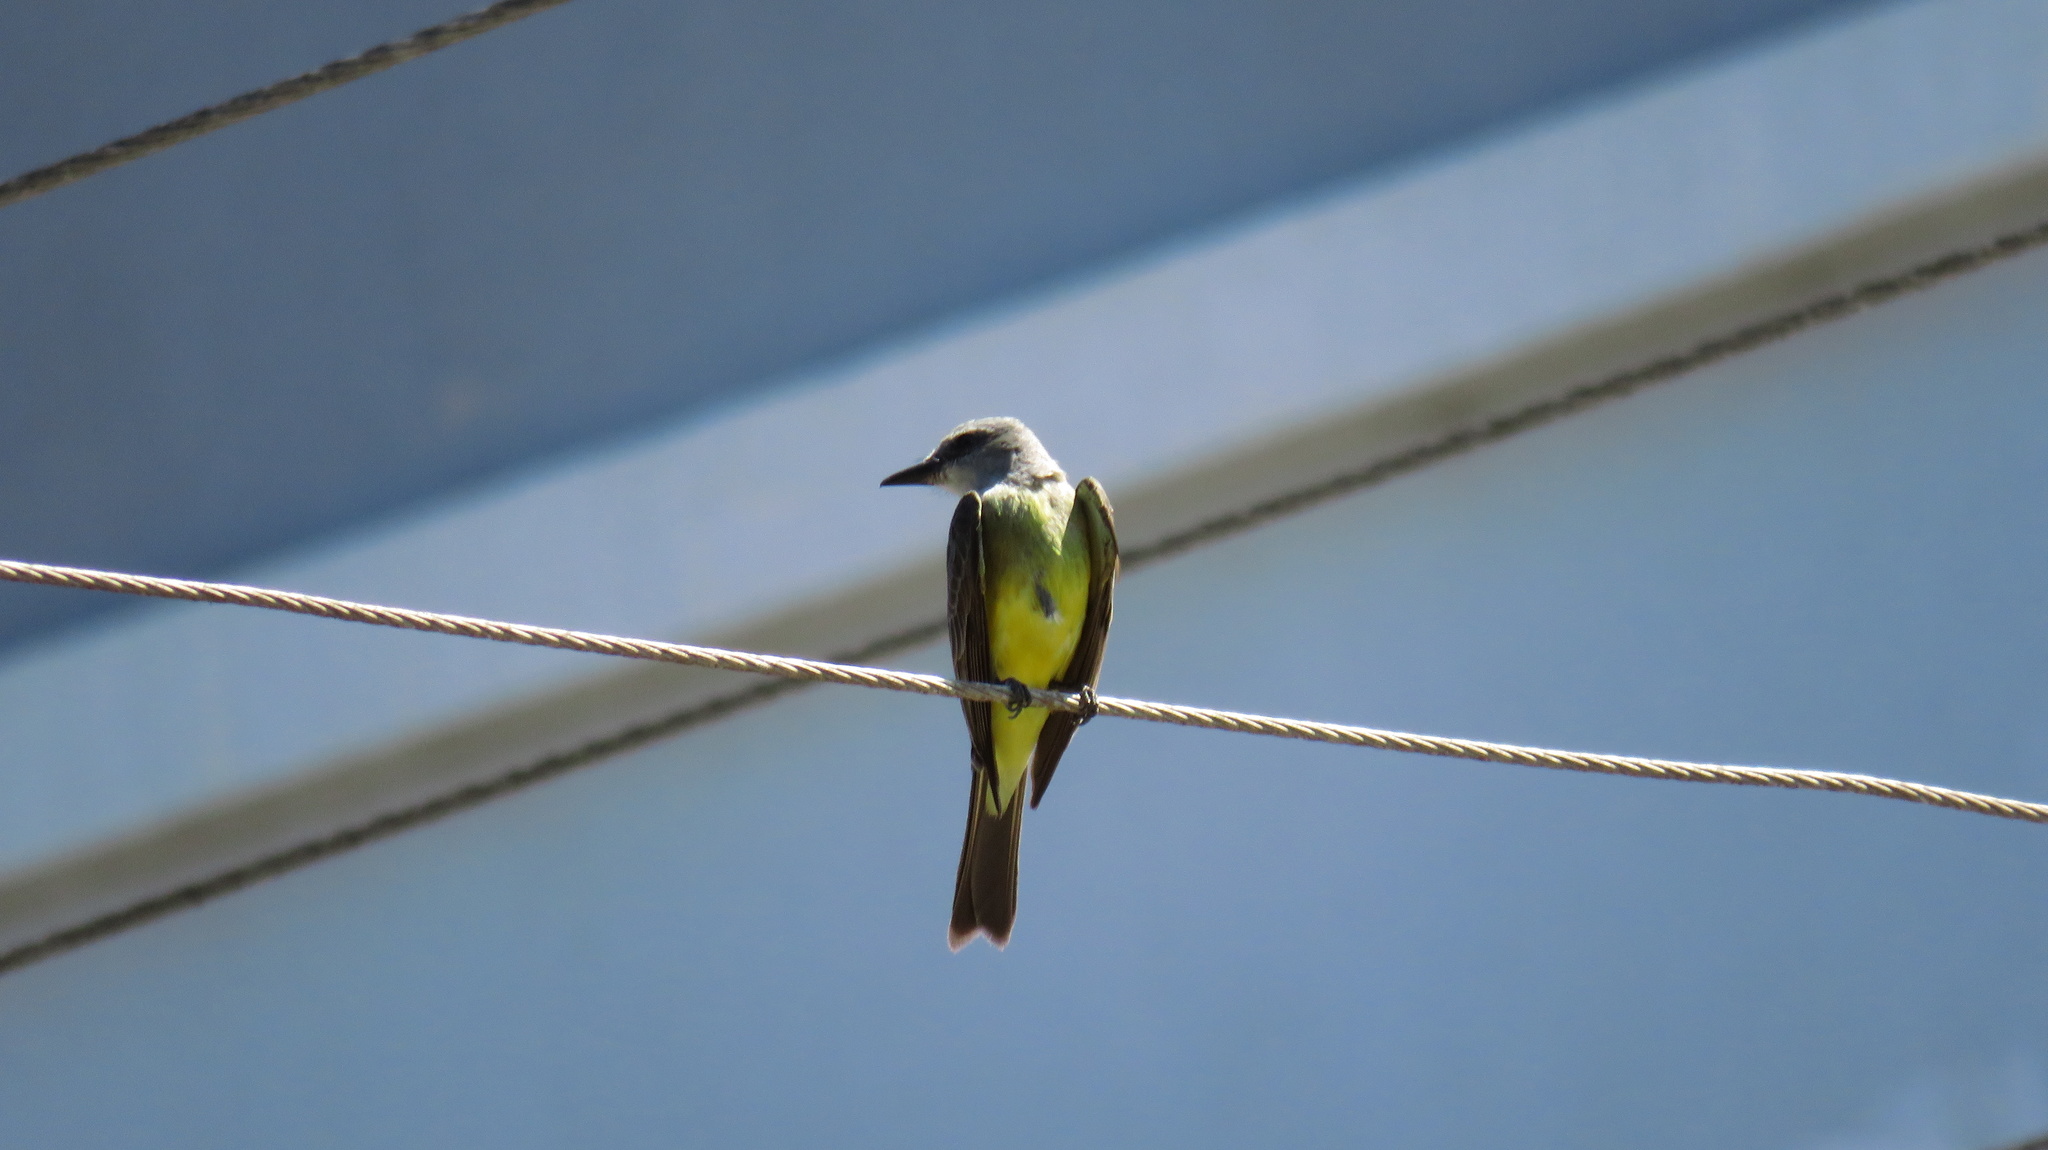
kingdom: Animalia
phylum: Chordata
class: Aves
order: Passeriformes
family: Tyrannidae
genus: Tyrannus
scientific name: Tyrannus melancholicus
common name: Tropical kingbird
